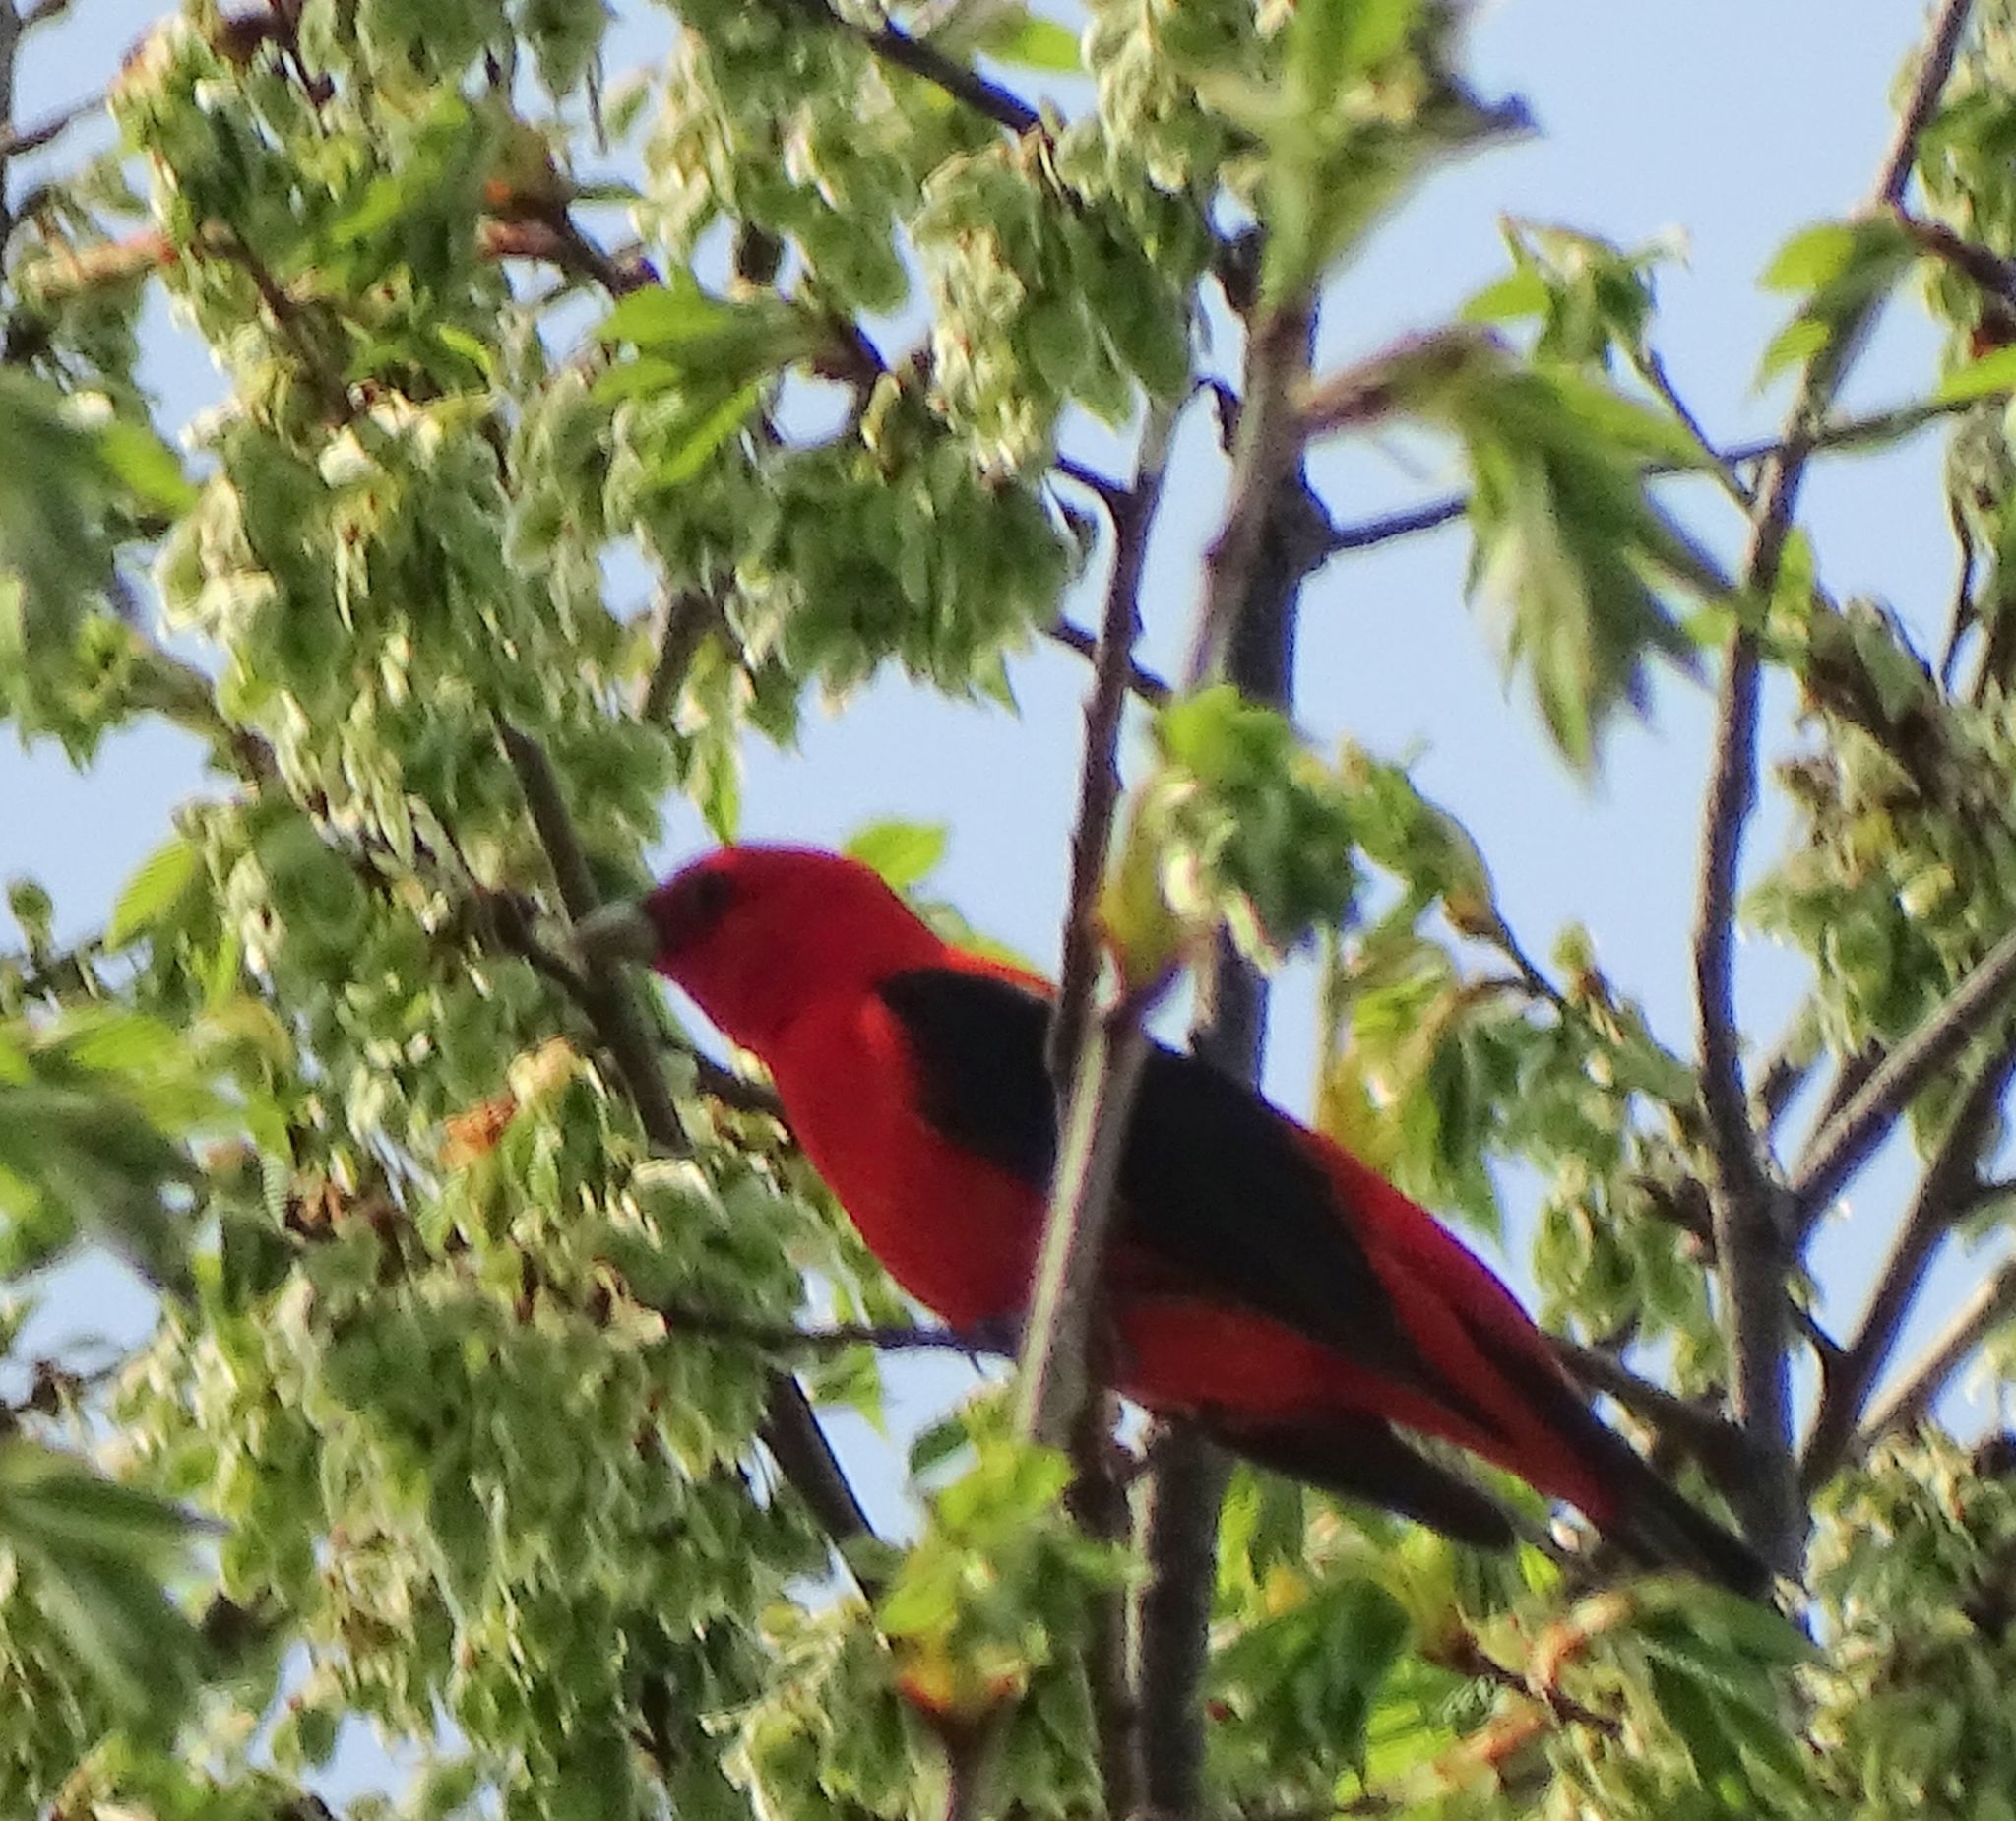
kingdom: Animalia
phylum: Chordata
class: Aves
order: Passeriformes
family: Cardinalidae
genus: Piranga
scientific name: Piranga olivacea
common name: Scarlet tanager
